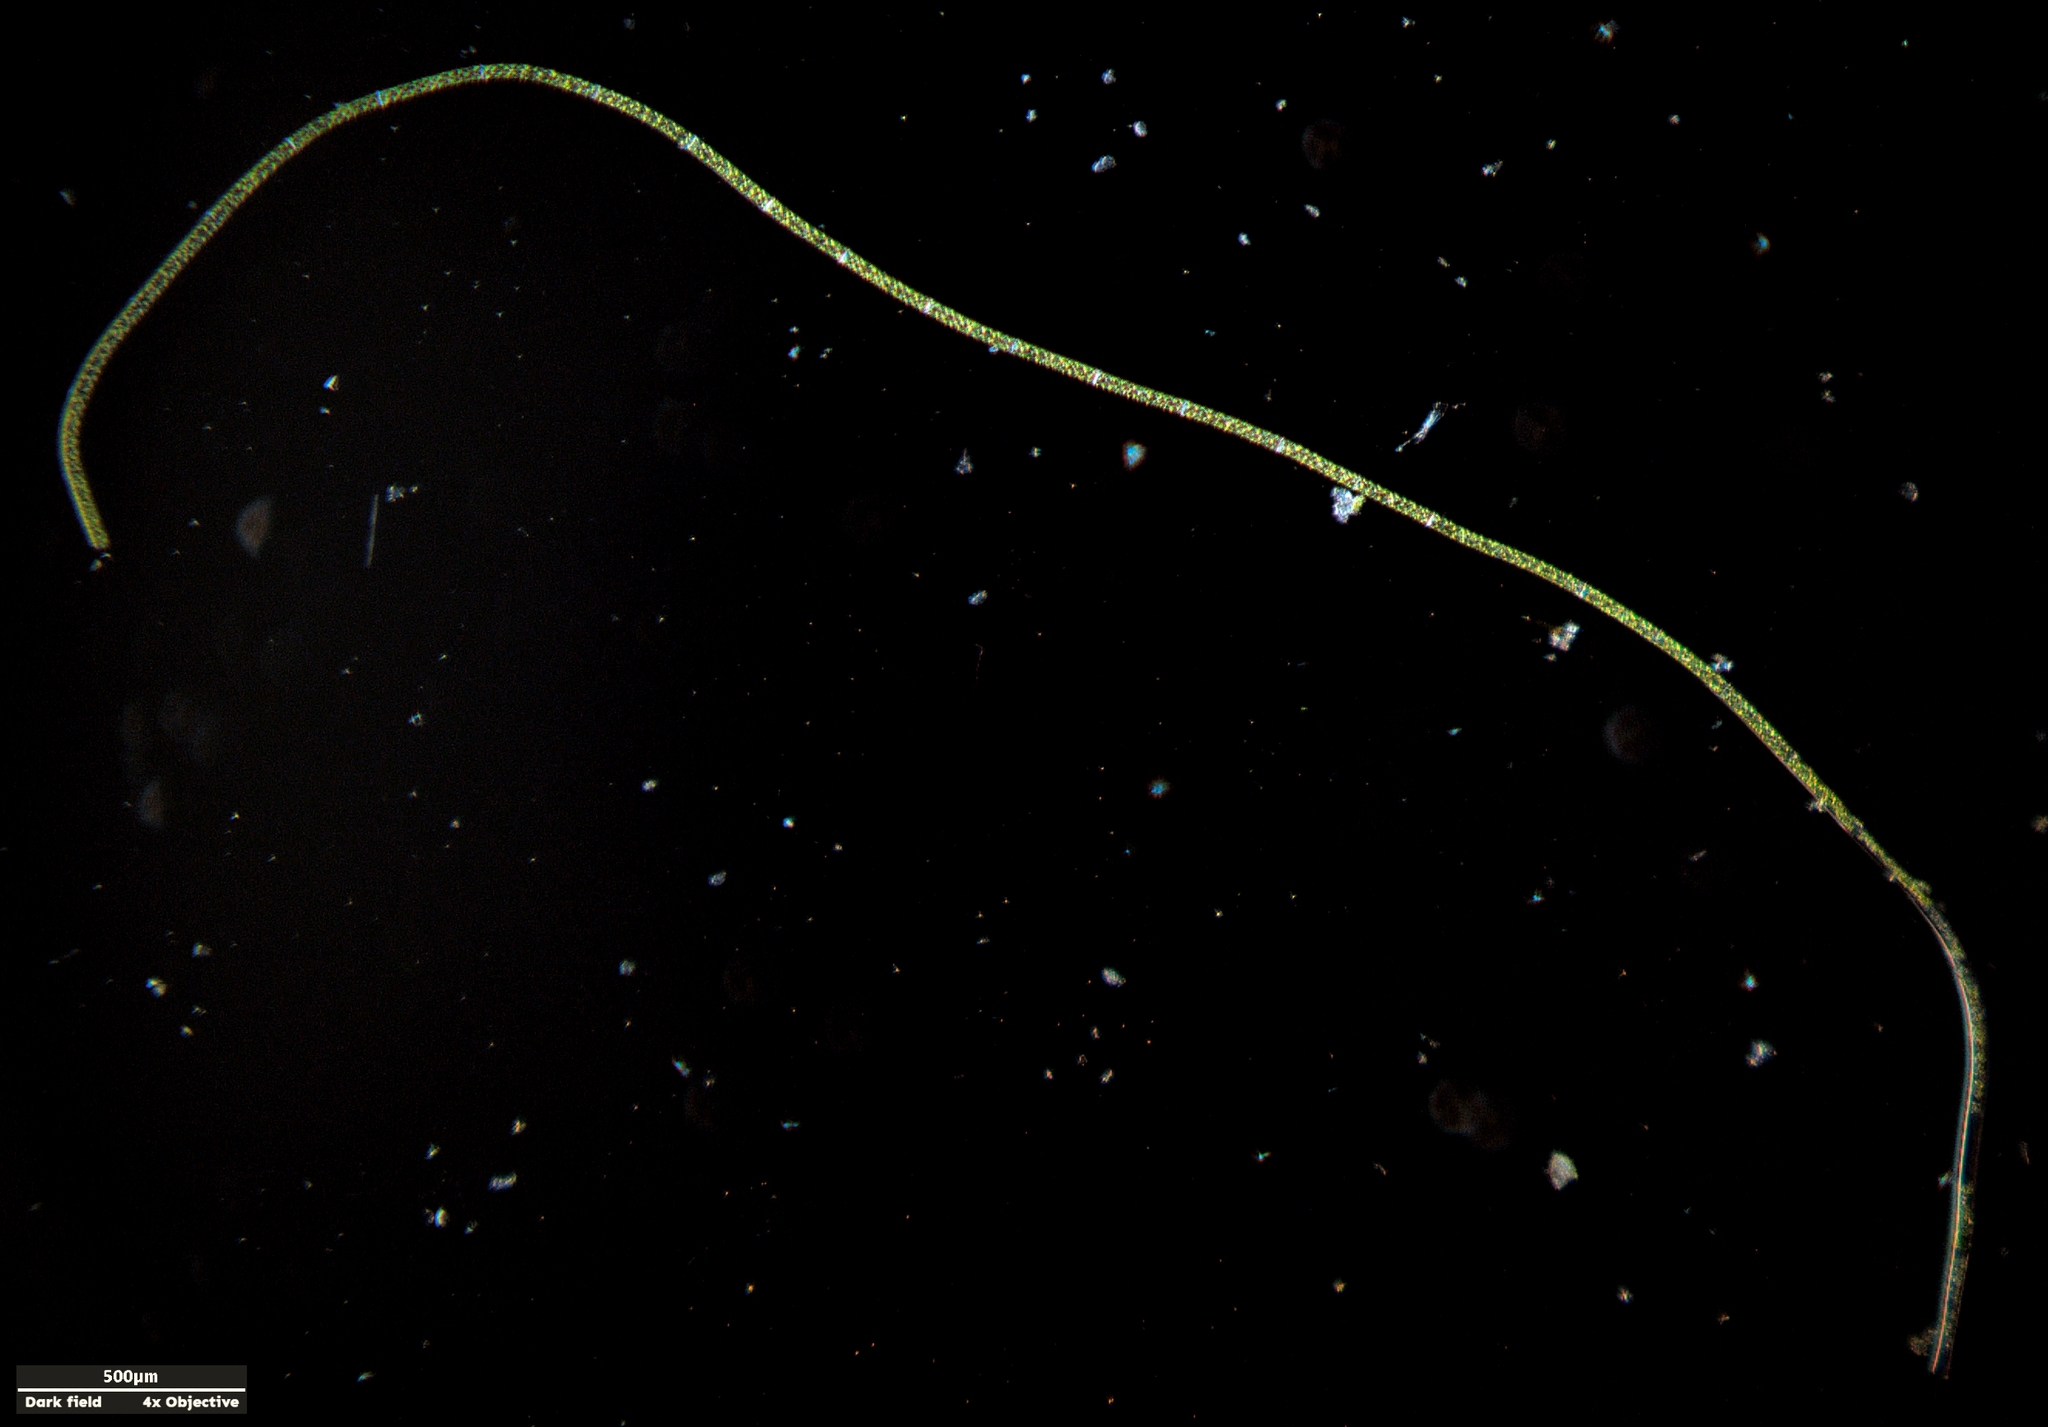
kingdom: Plantae
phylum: Charophyta
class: Zygnematophyceae
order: Zygnematales
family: Zygnemataceae
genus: Spirogyra
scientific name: Spirogyra
